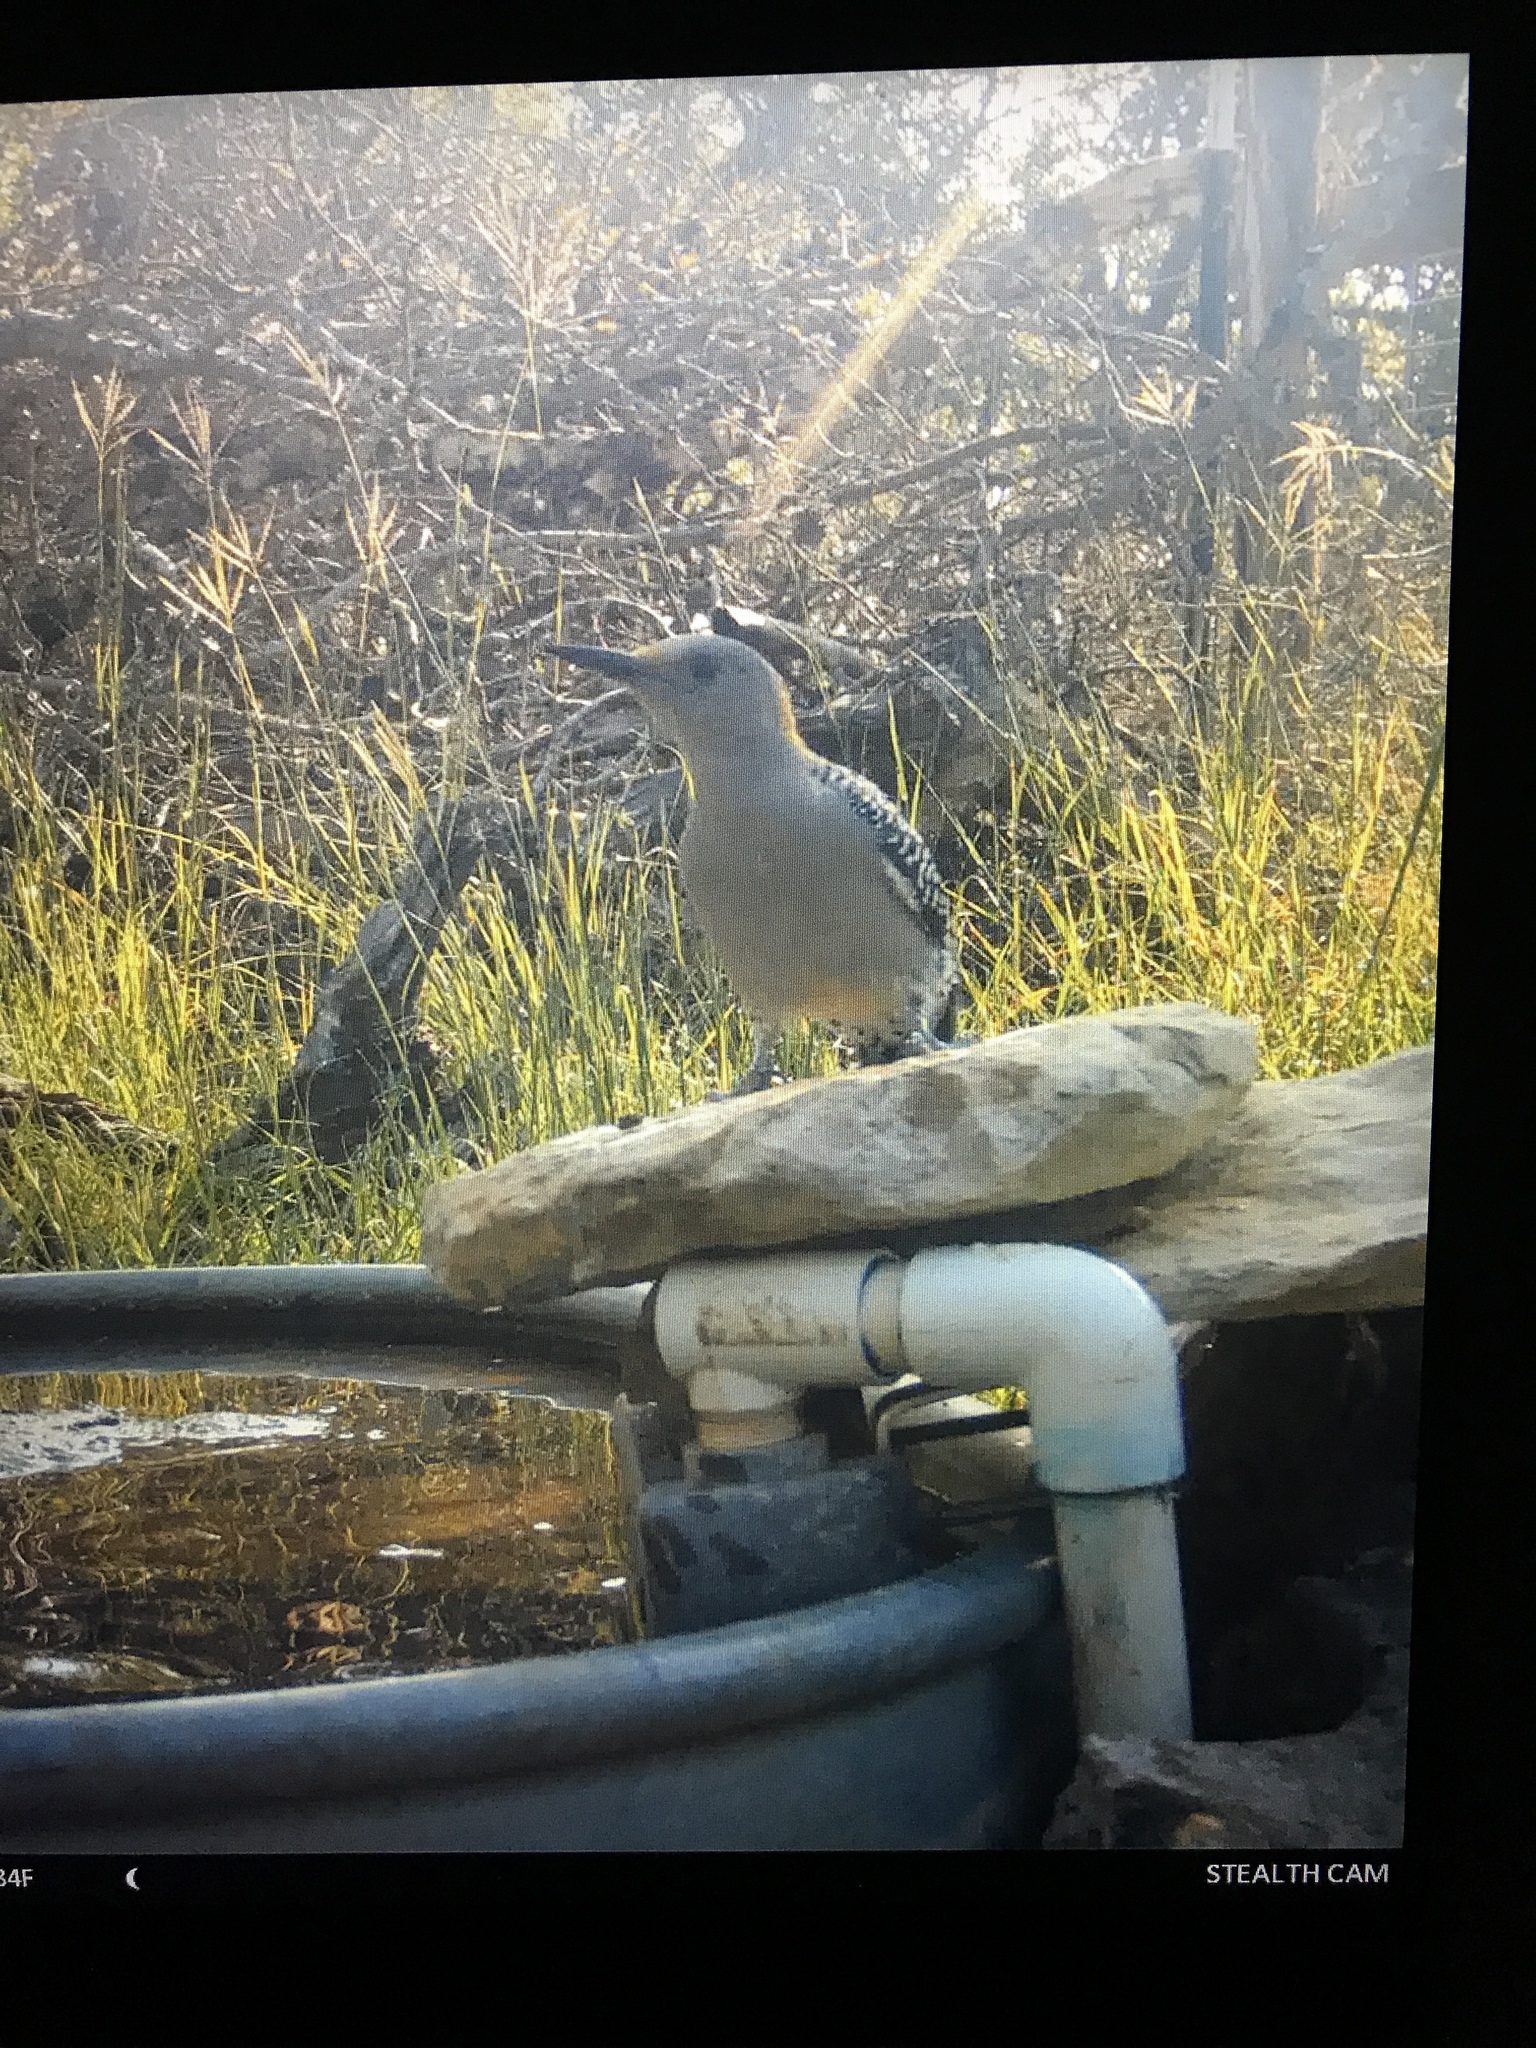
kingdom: Animalia
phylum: Chordata
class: Aves
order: Piciformes
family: Picidae
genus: Melanerpes
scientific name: Melanerpes aurifrons
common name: Golden-fronted woodpecker
